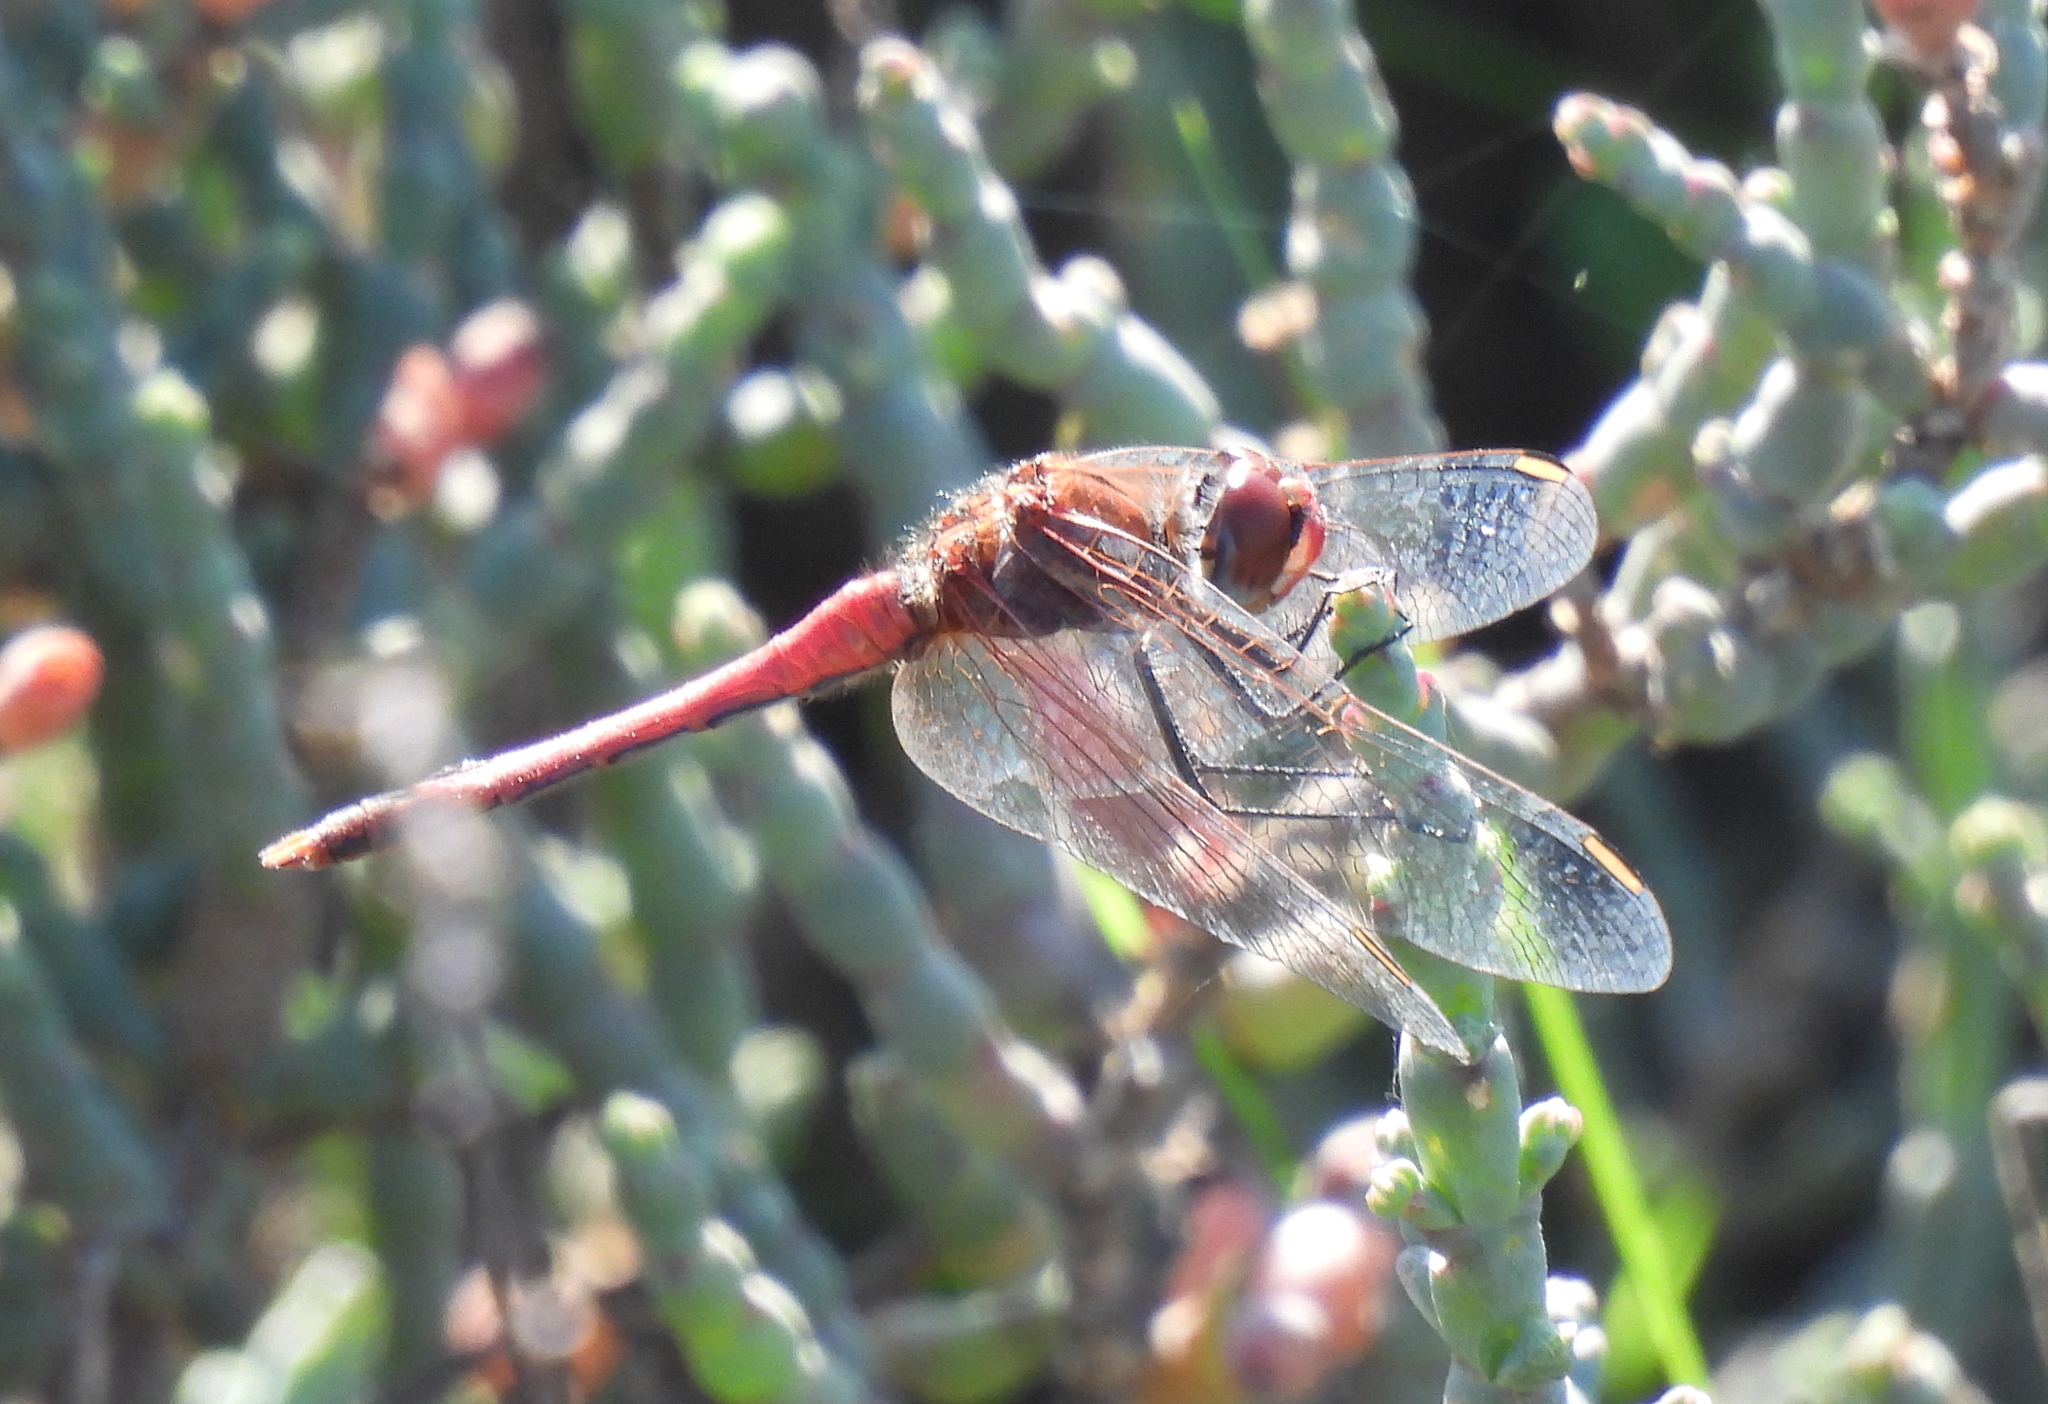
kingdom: Animalia
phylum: Arthropoda
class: Insecta
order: Odonata
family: Libellulidae
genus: Sympetrum
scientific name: Sympetrum fonscolombii
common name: Red-veined darter
